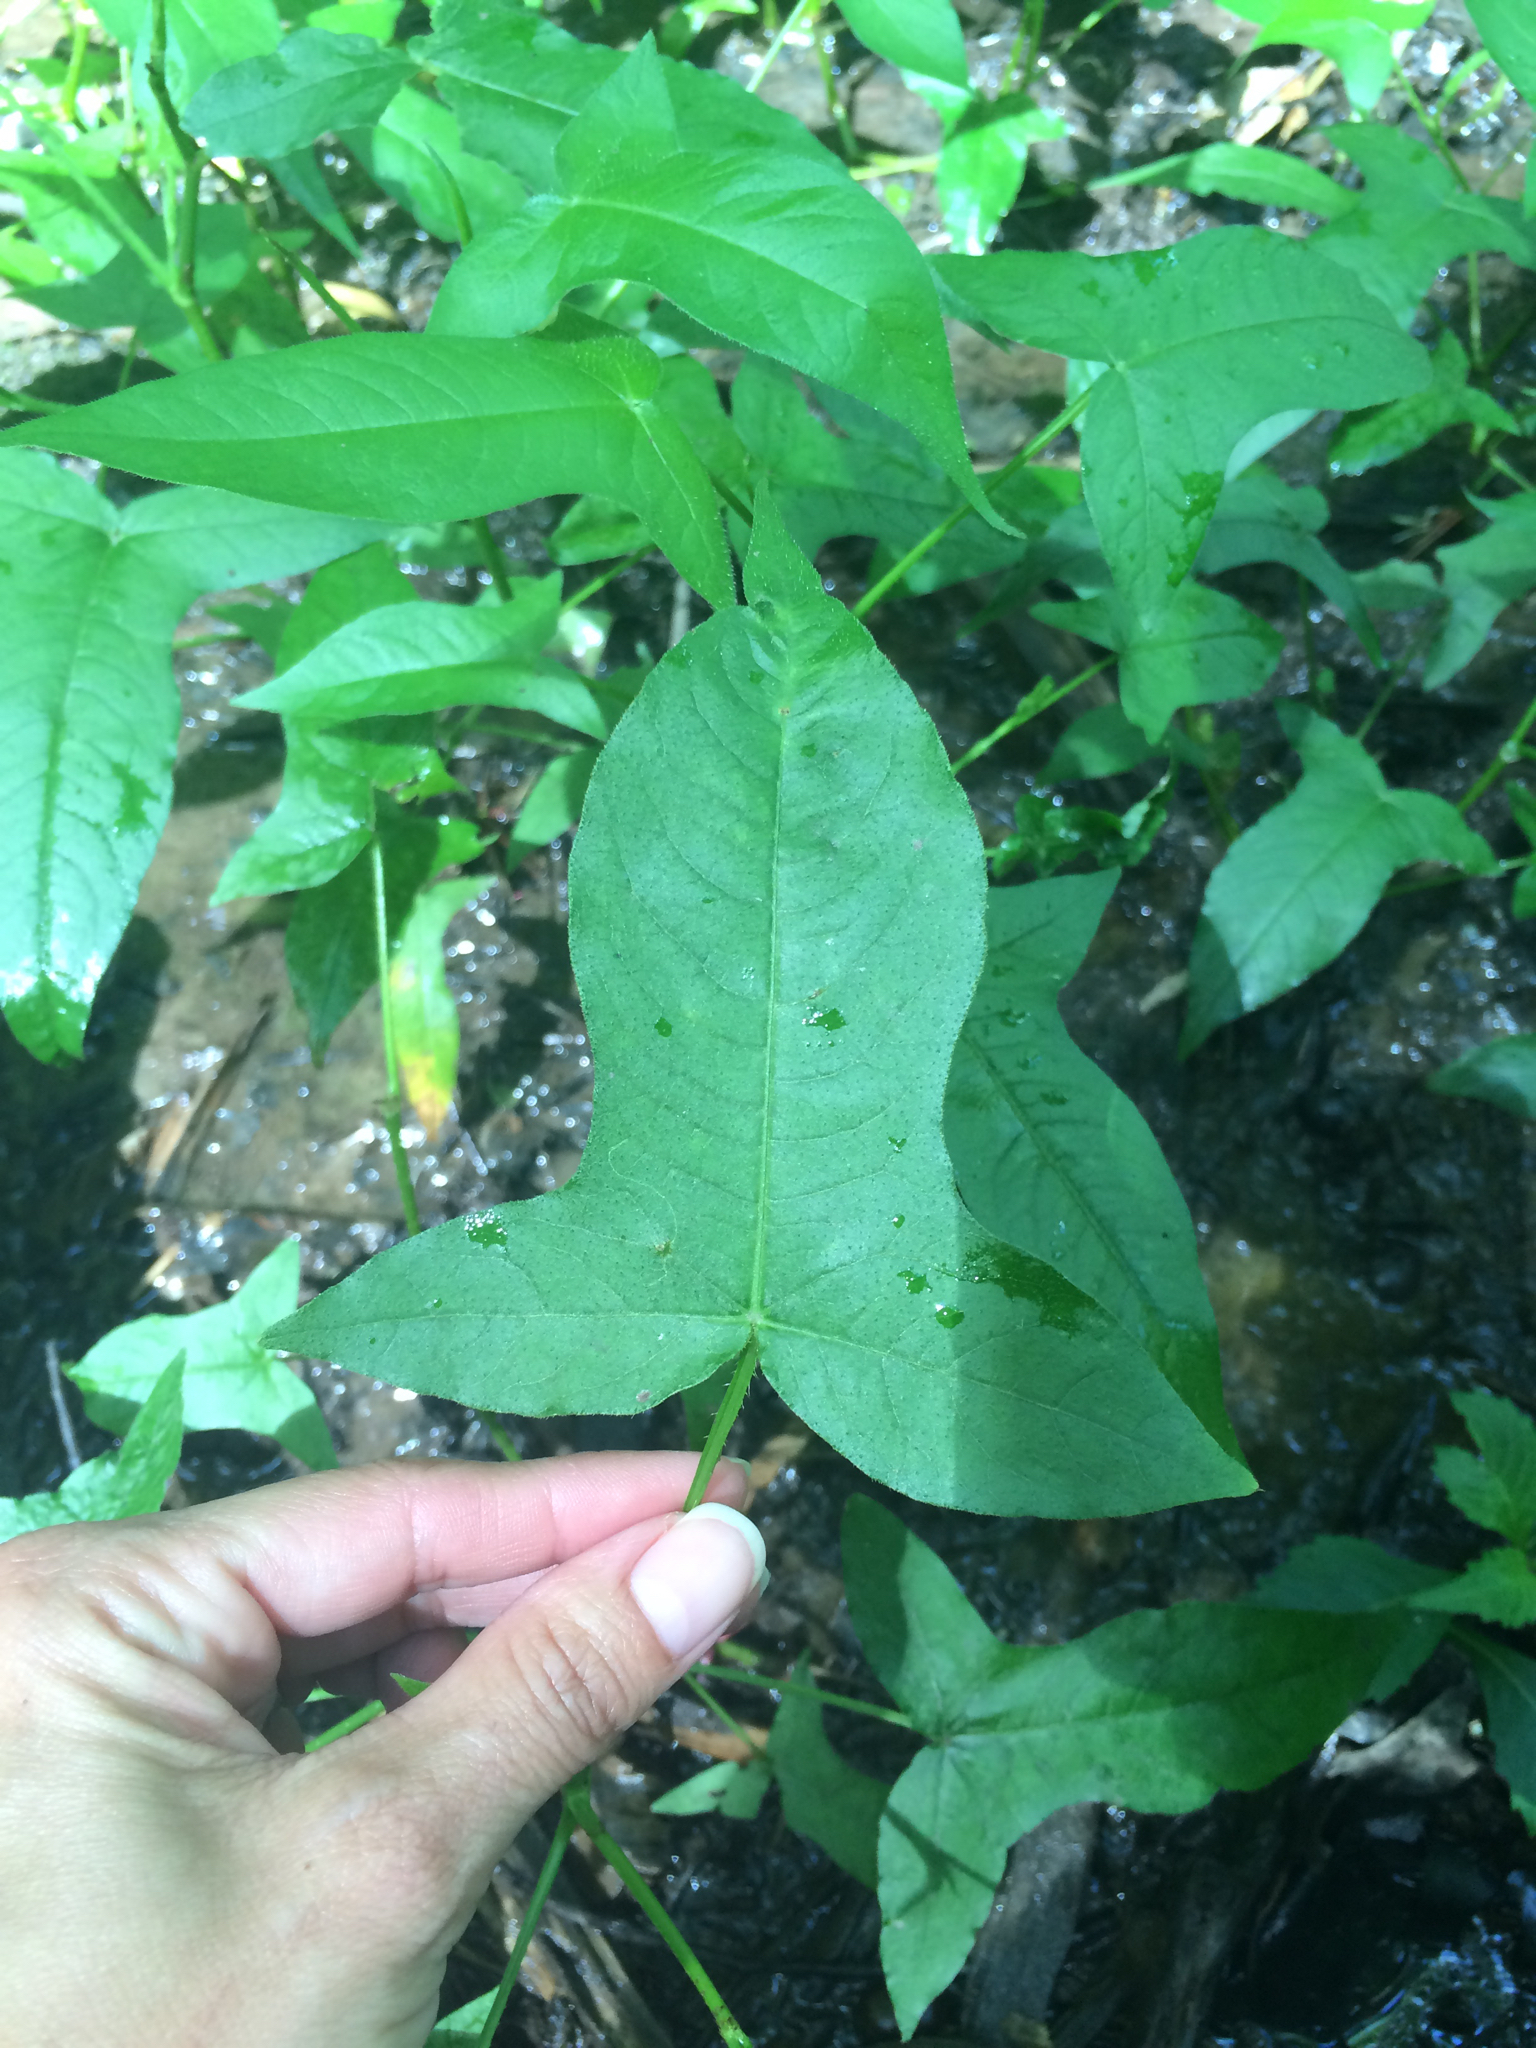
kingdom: Plantae
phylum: Tracheophyta
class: Magnoliopsida
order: Caryophyllales
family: Polygonaceae
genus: Persicaria
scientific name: Persicaria arifolia
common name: Halberd-leaved tear-thumb
